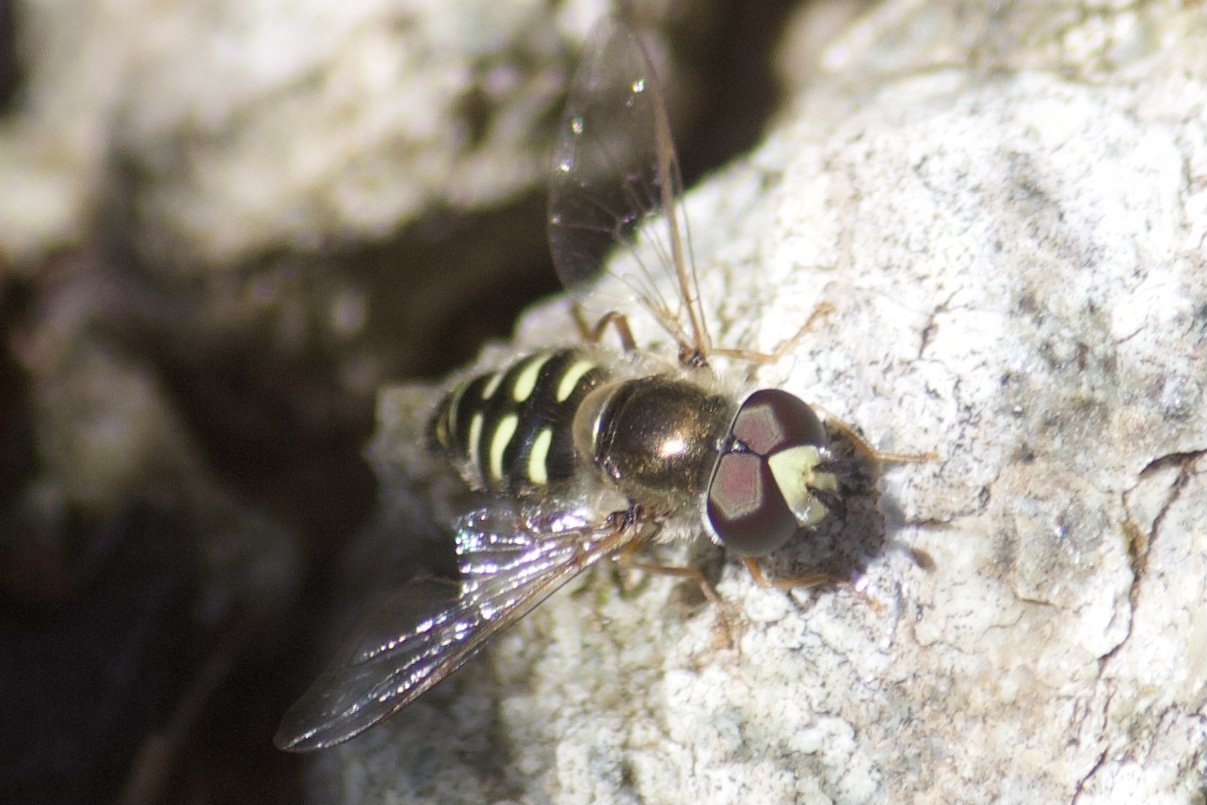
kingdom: Animalia
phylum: Arthropoda
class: Insecta
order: Diptera
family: Syrphidae
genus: Eupeodes
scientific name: Eupeodes volucris
